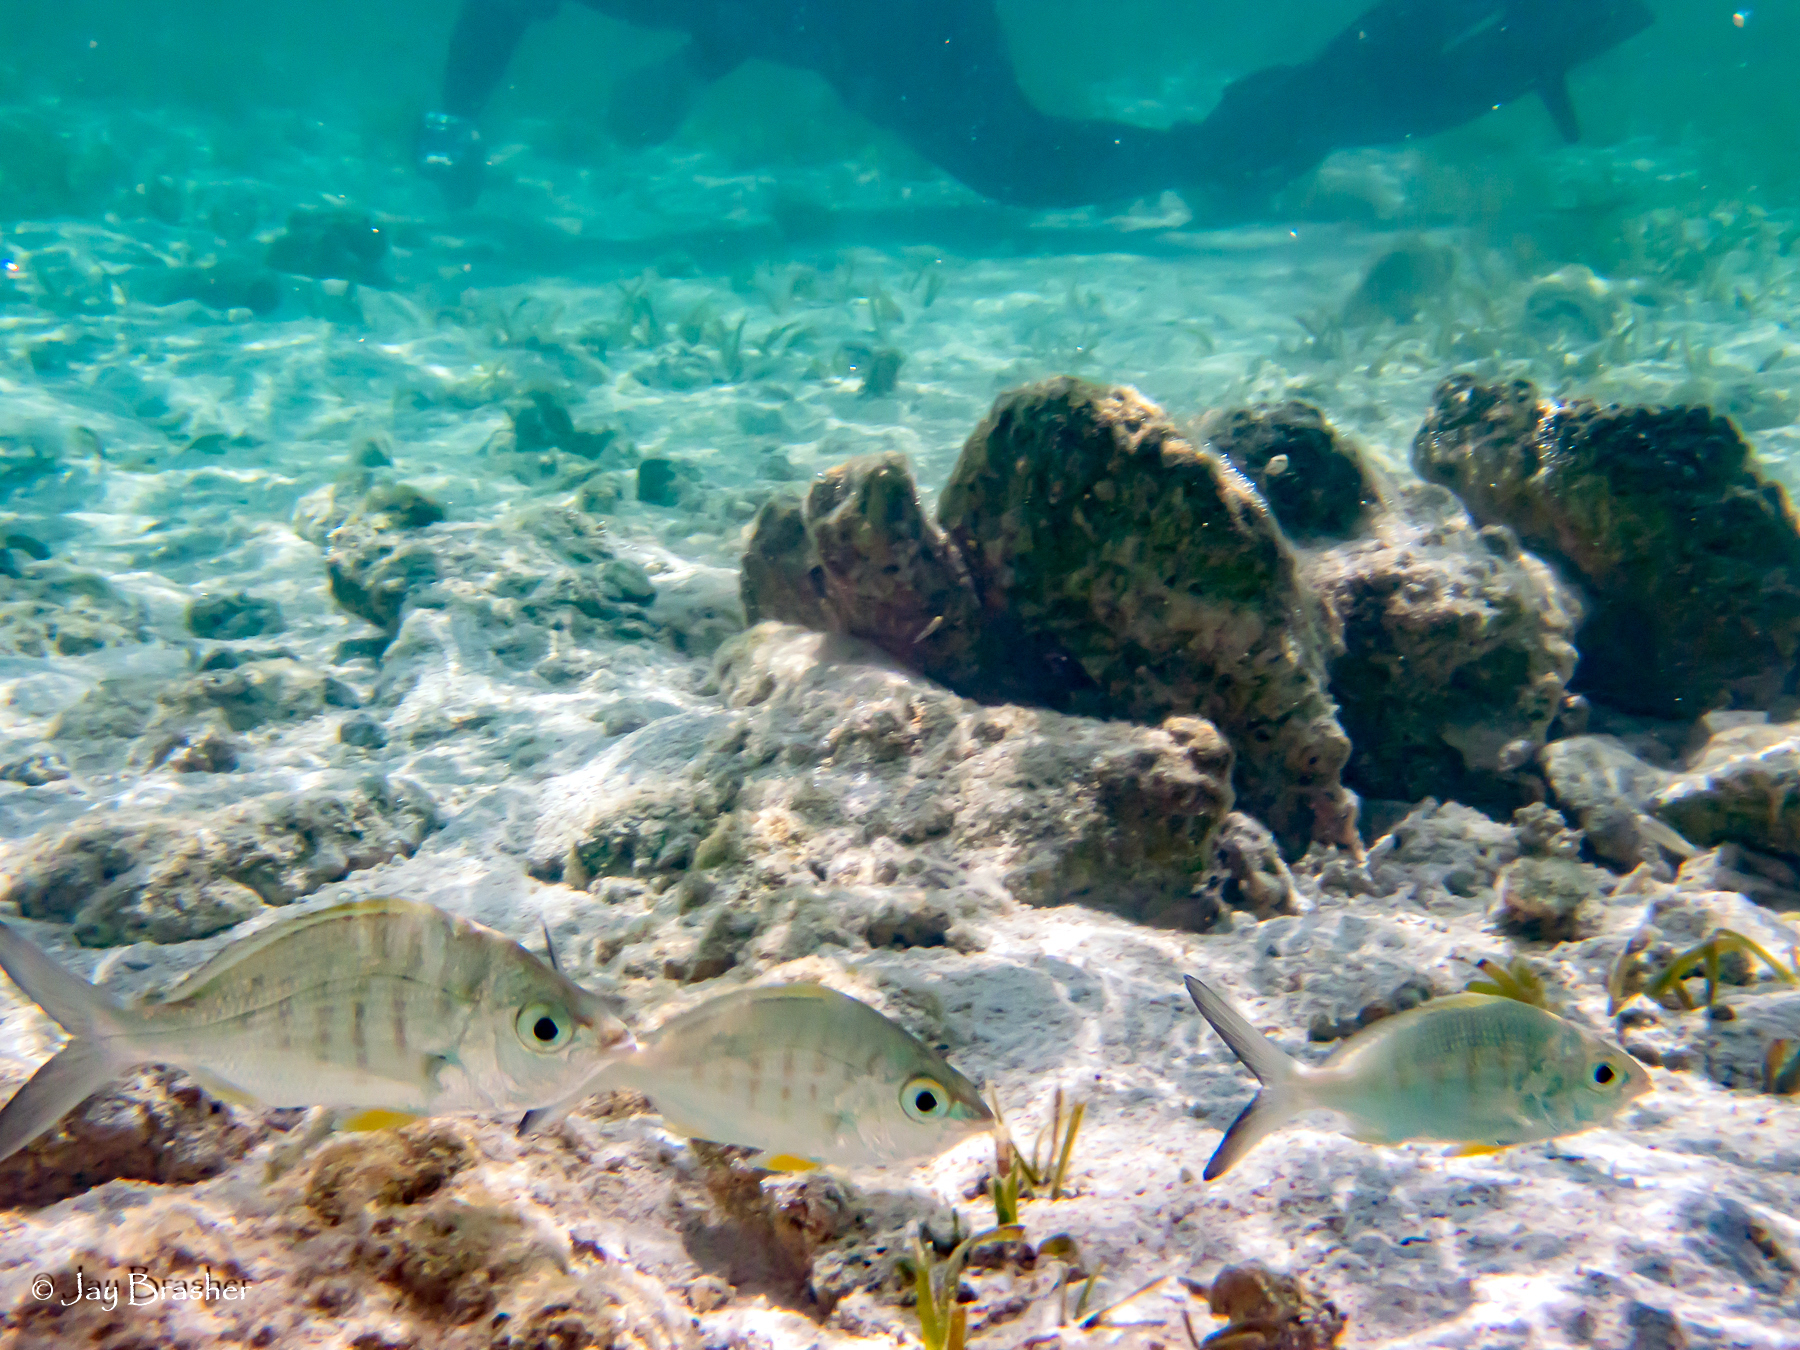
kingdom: Animalia
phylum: Chordata
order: Perciformes
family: Gerreidae
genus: Gerres
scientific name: Gerres cinereus
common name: Hedow
